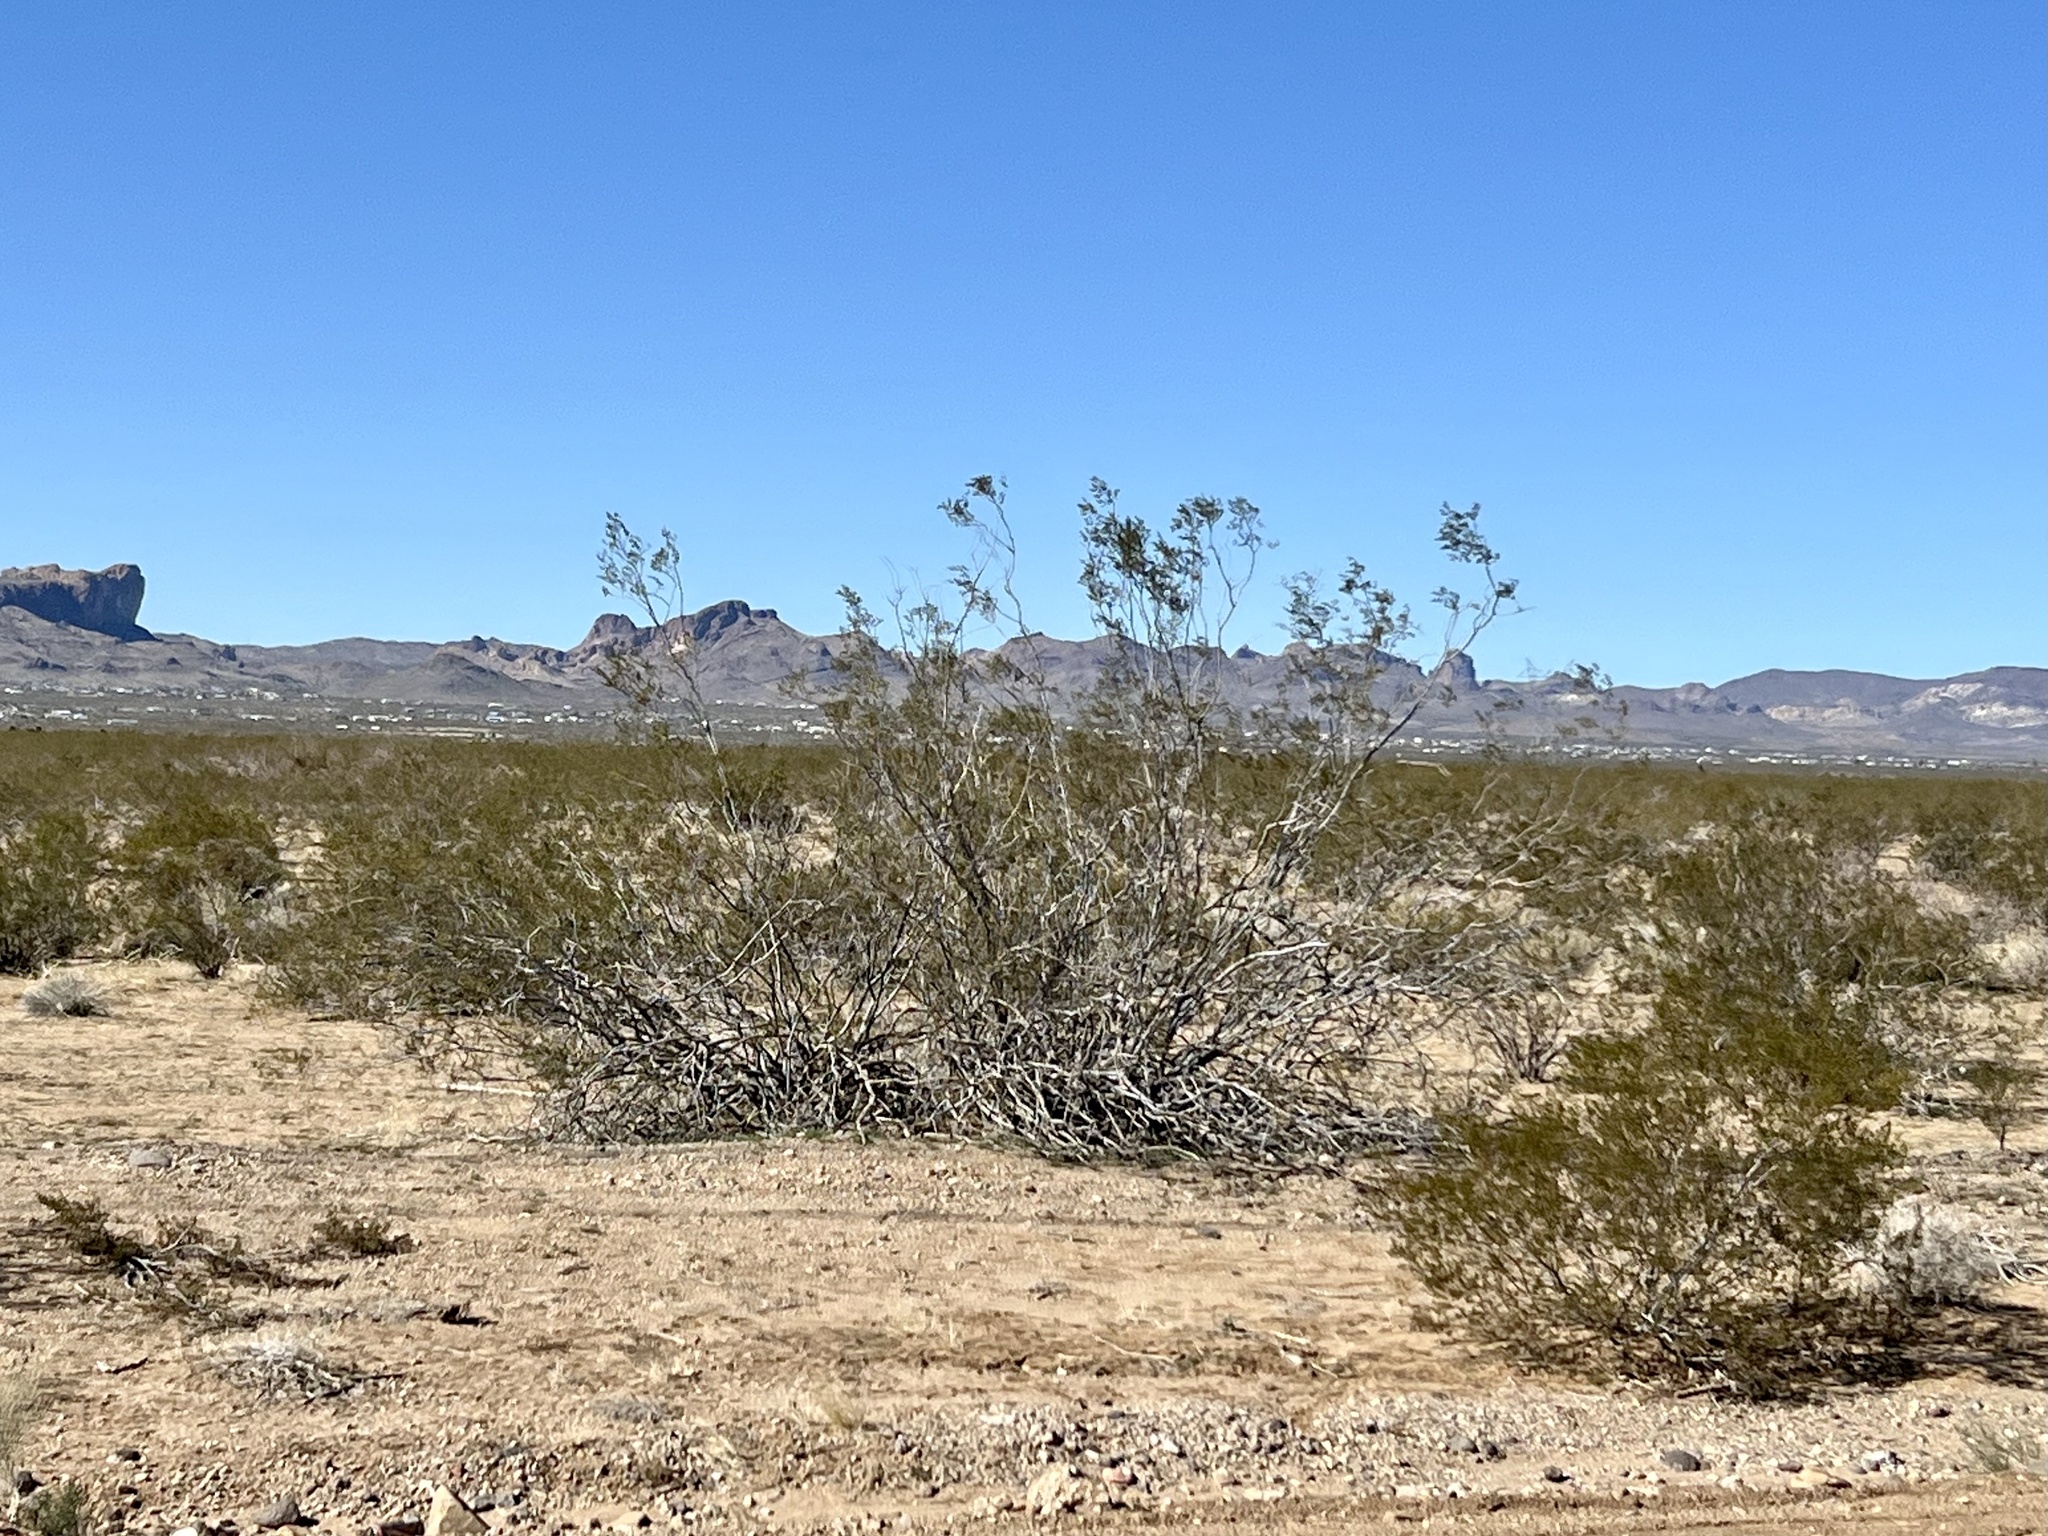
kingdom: Plantae
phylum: Tracheophyta
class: Magnoliopsida
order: Zygophyllales
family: Zygophyllaceae
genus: Larrea
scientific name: Larrea tridentata
